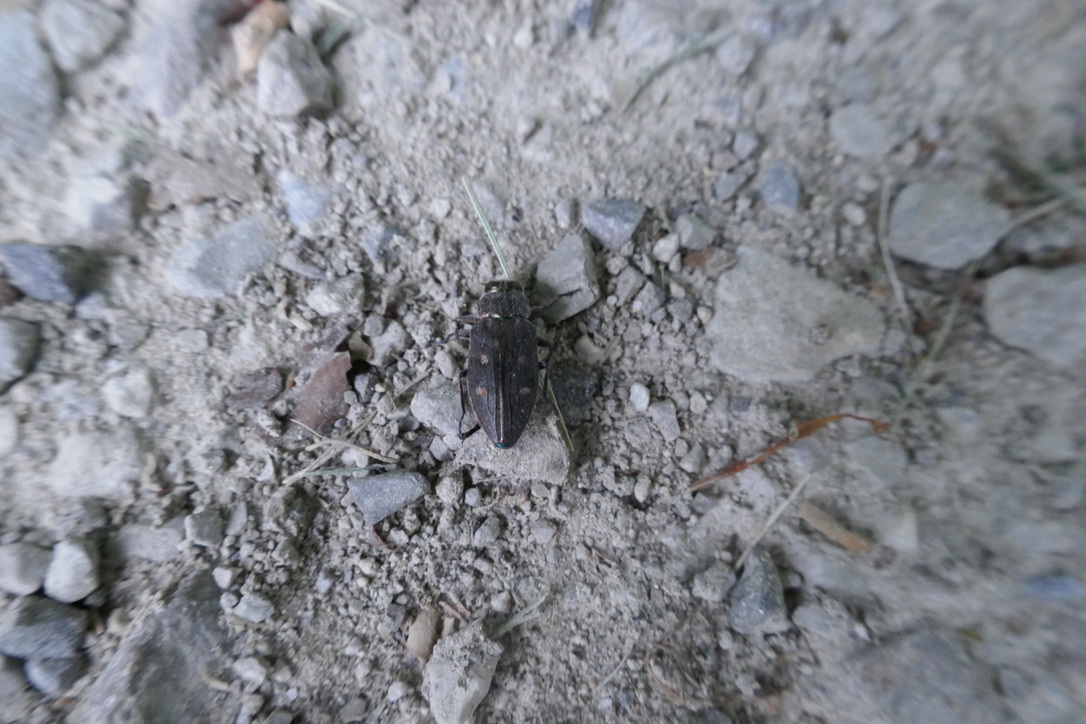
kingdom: Animalia
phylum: Arthropoda
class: Insecta
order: Coleoptera
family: Buprestidae
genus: Chrysobothris
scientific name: Chrysobothris affinis
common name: Beetle
